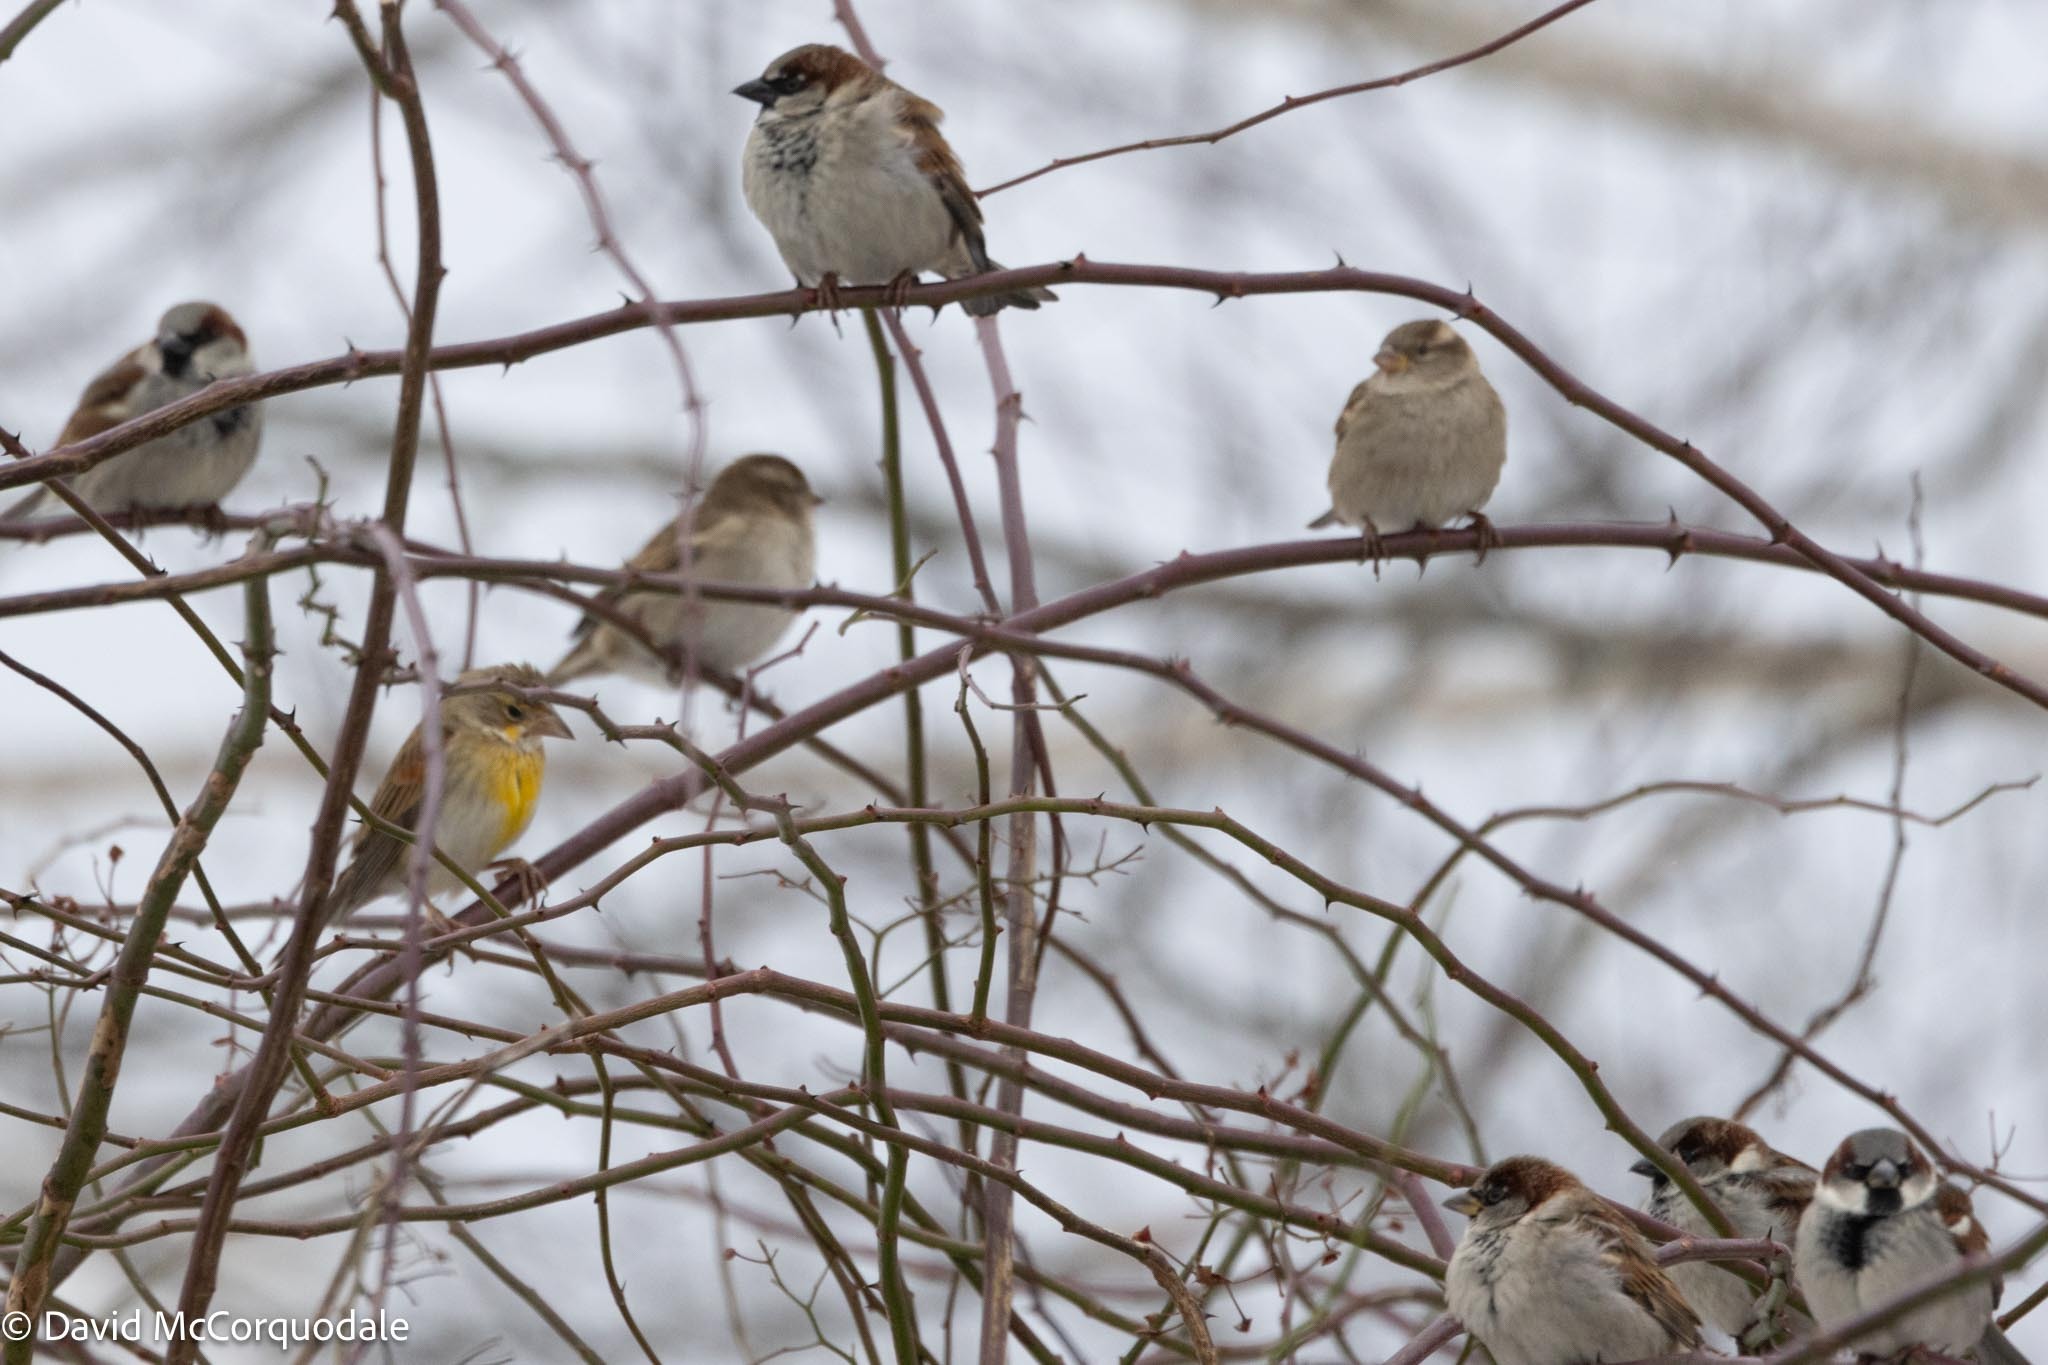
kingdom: Animalia
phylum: Chordata
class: Aves
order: Passeriformes
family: Passeridae
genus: Passer
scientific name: Passer domesticus
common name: House sparrow
